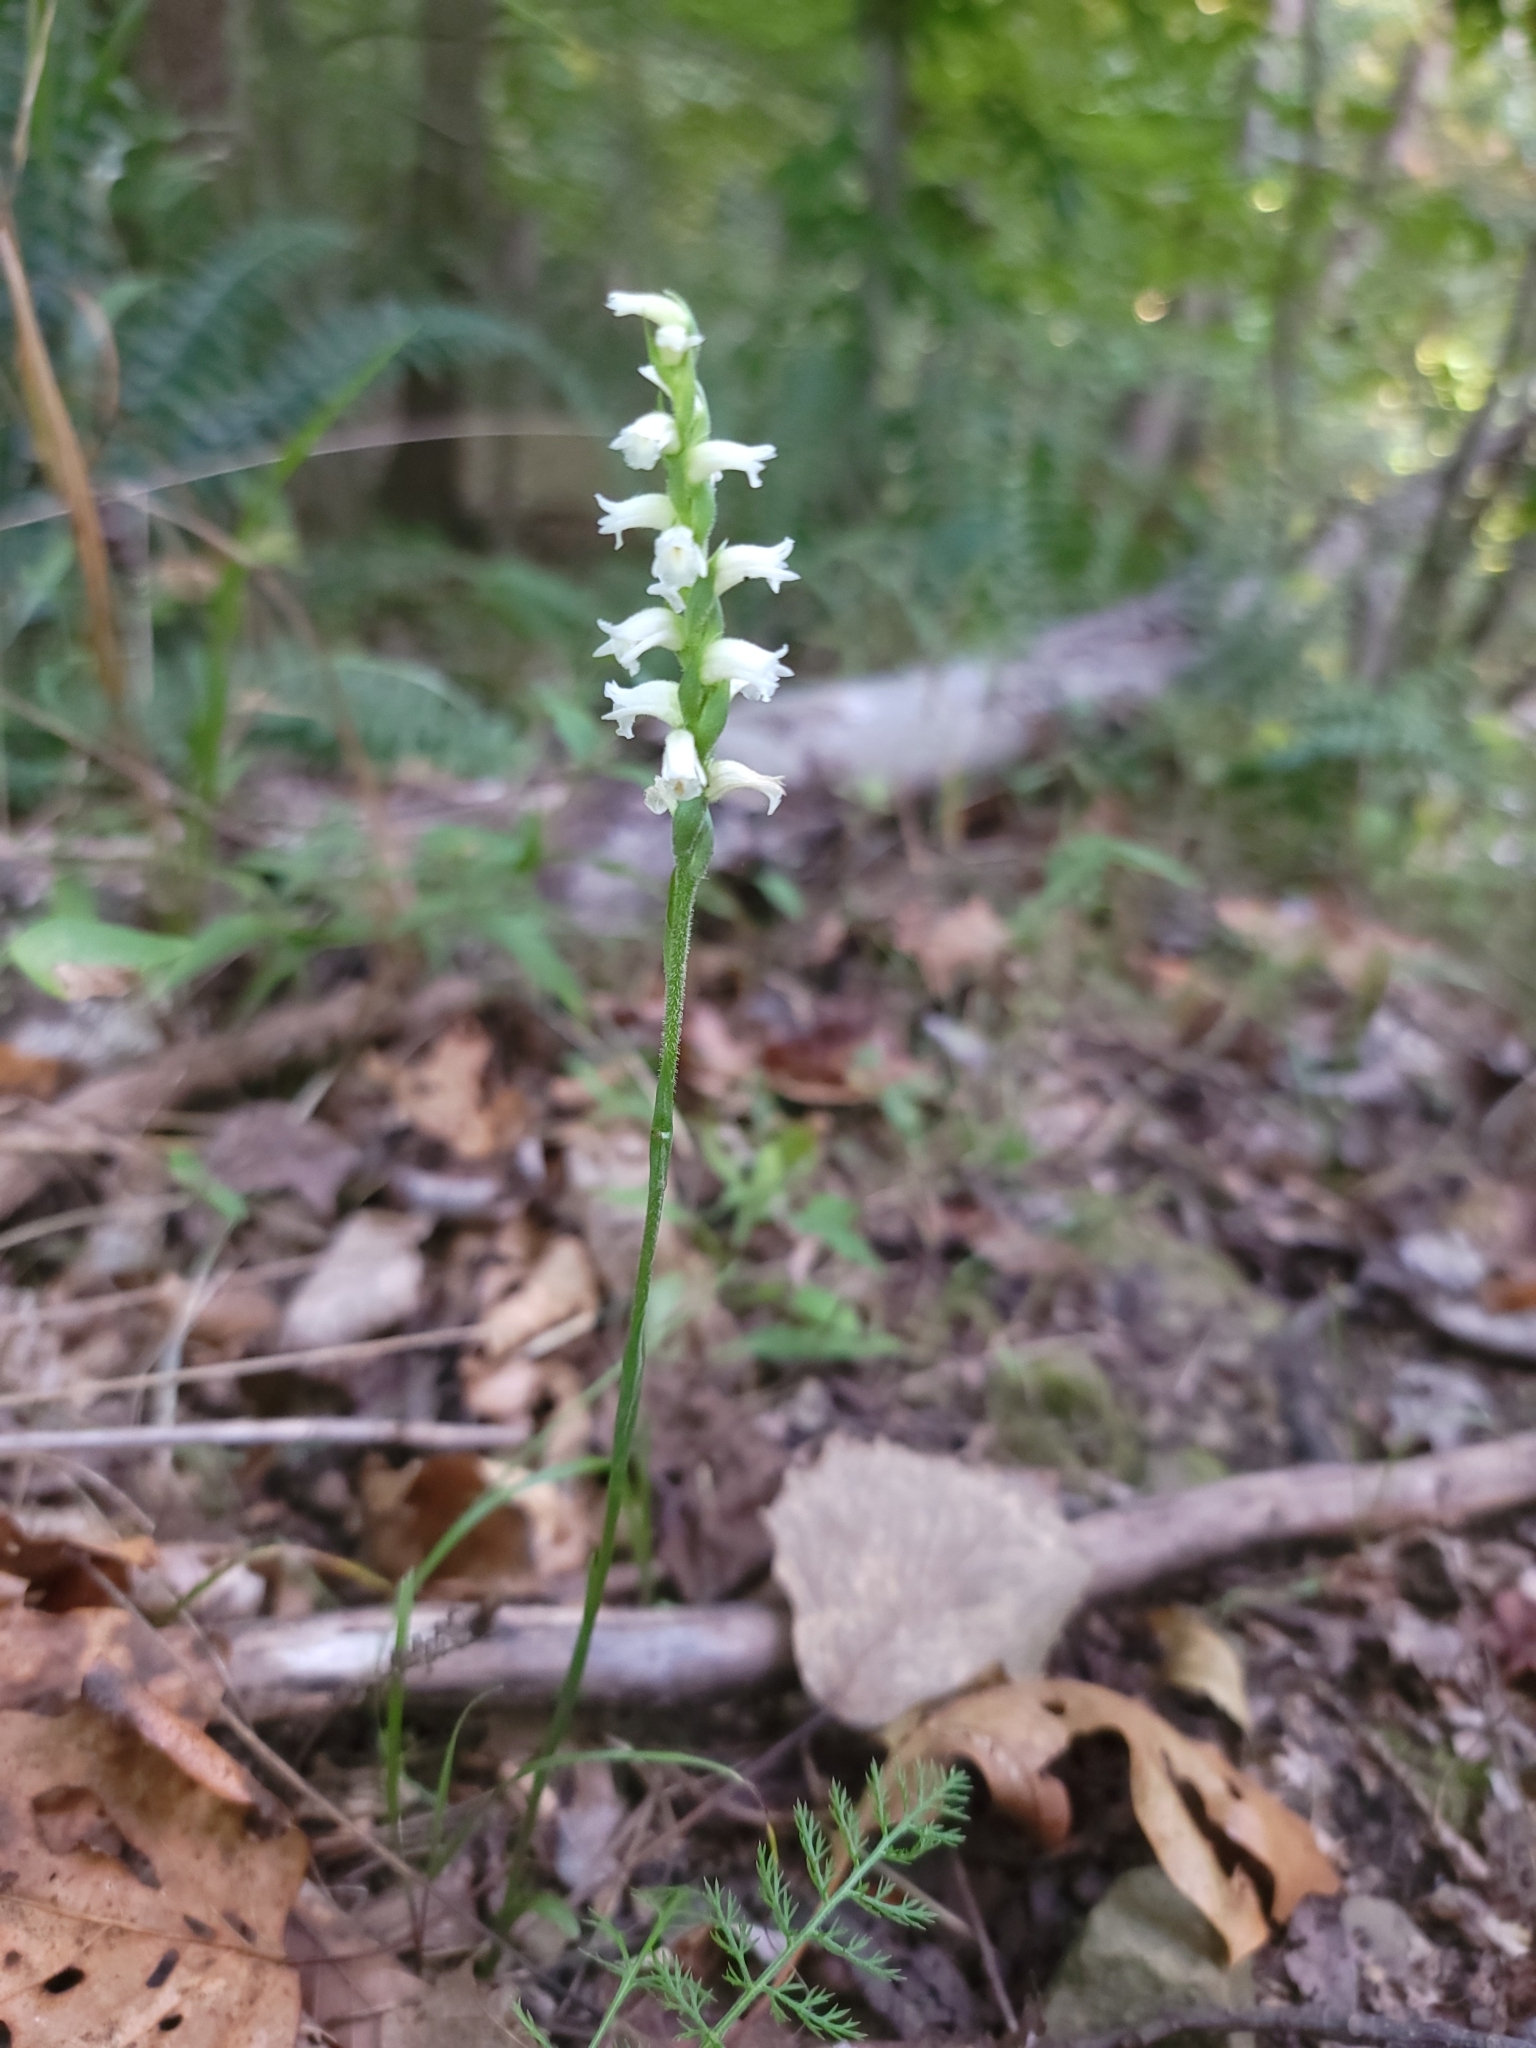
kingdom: Plantae
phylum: Tracheophyta
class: Liliopsida
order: Asparagales
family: Orchidaceae
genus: Spiranthes
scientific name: Spiranthes ochroleuca
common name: Yellow ladies'-tresses
